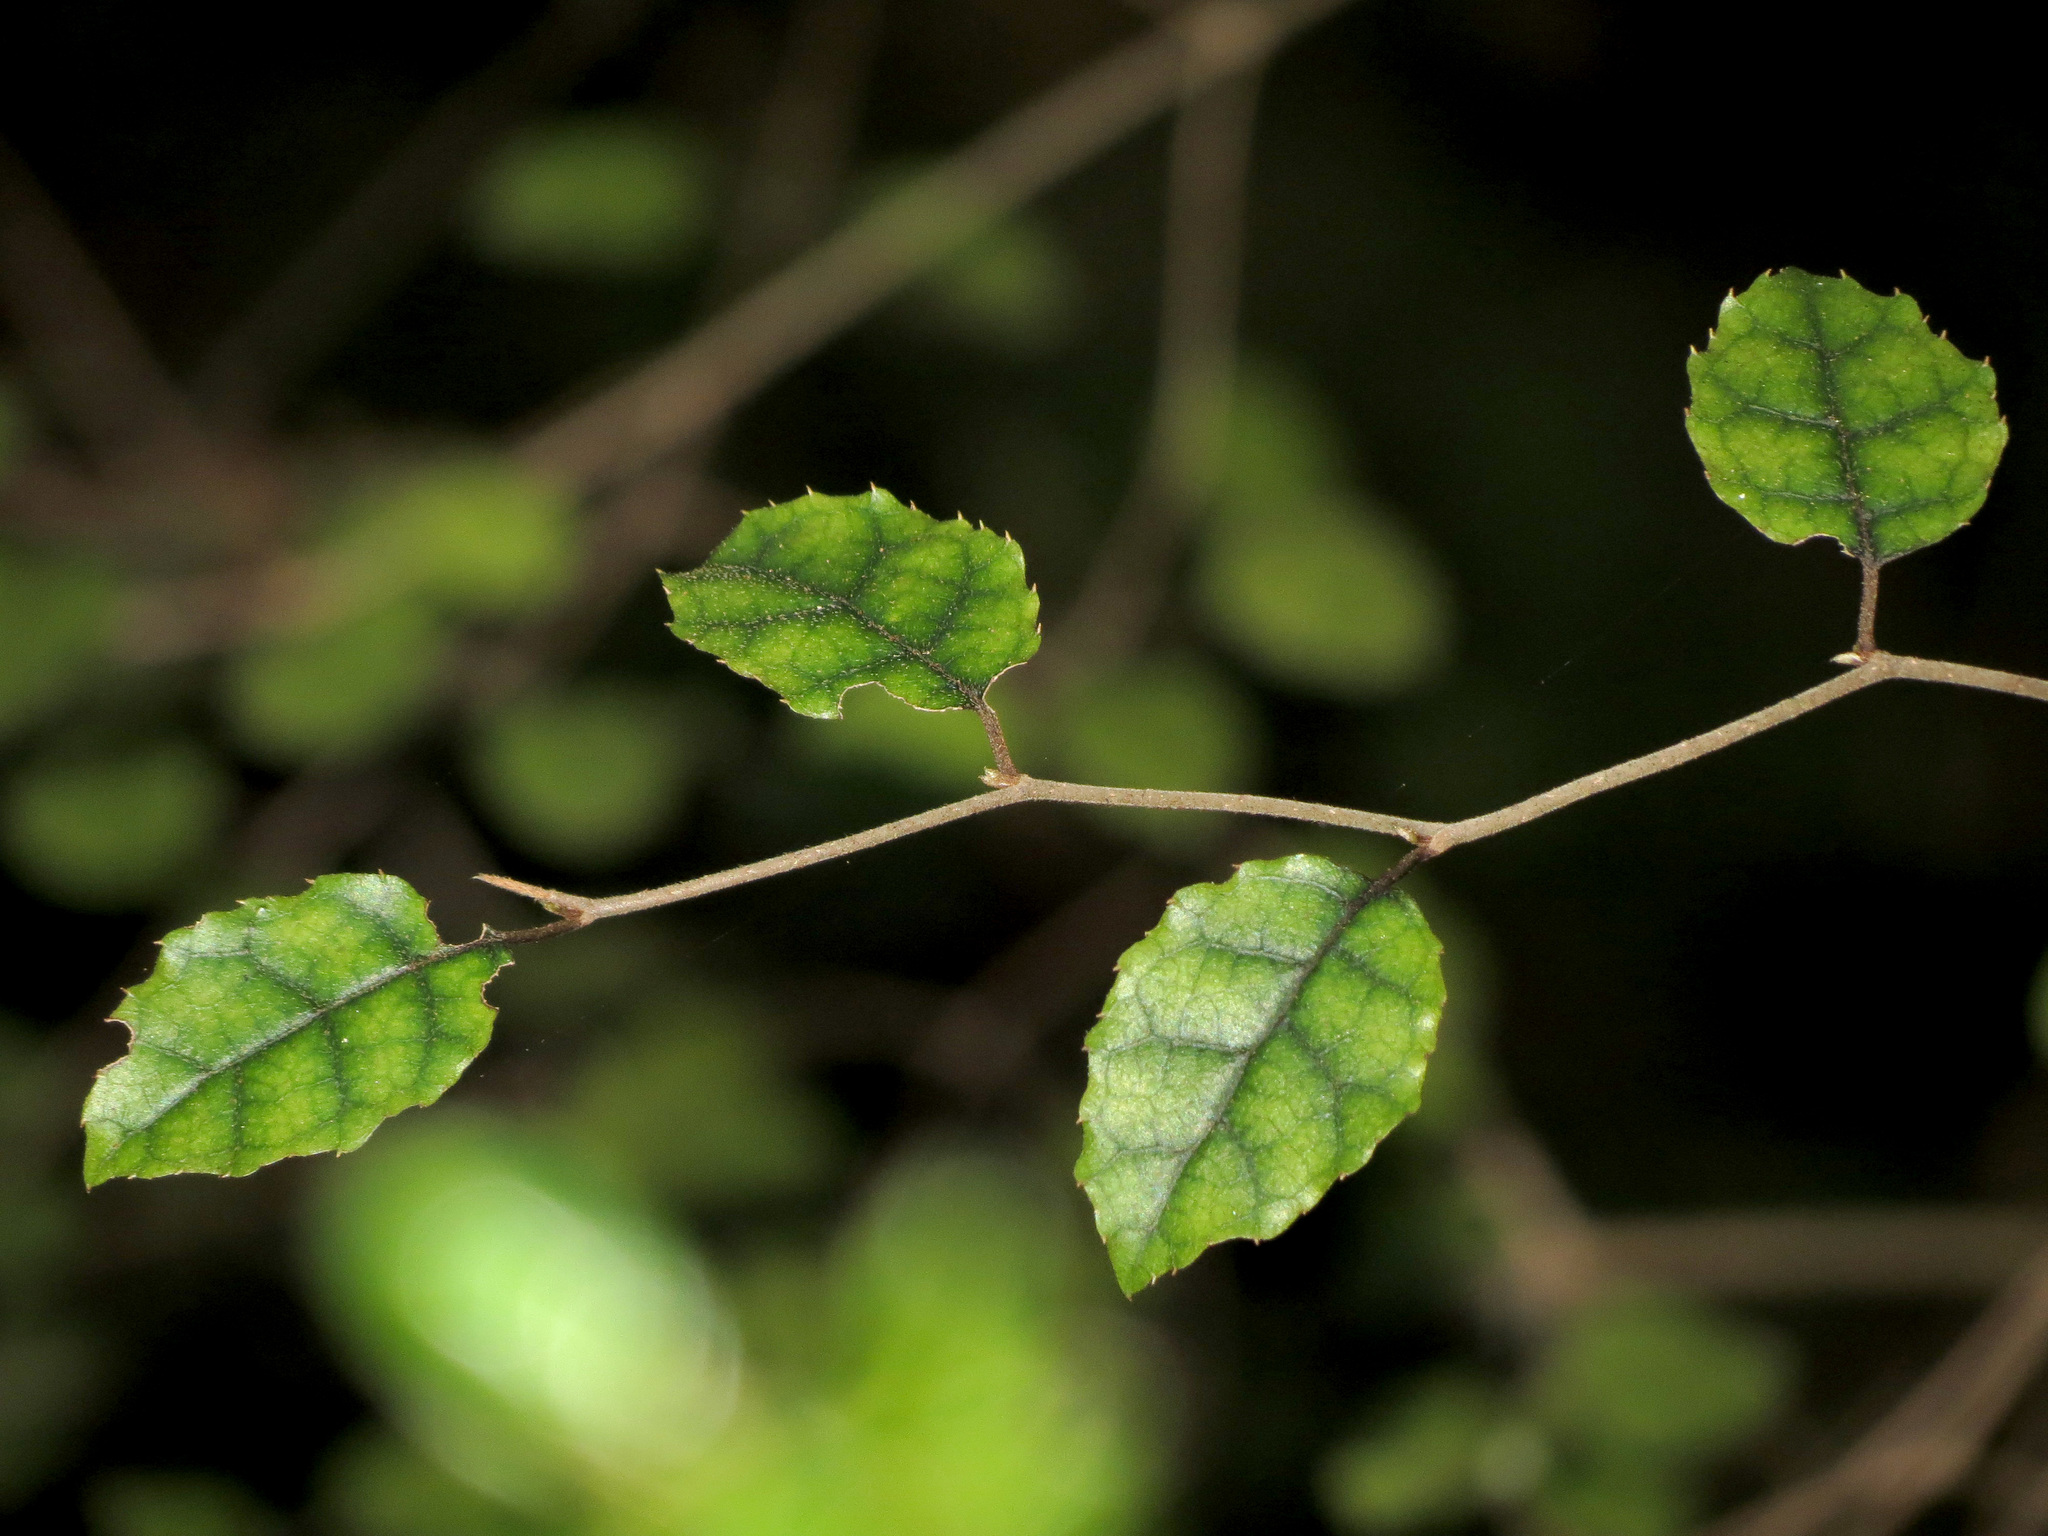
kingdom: Plantae
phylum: Tracheophyta
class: Magnoliopsida
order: Asterales
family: Rousseaceae
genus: Carpodetus
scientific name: Carpodetus serratus
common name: White mapau
